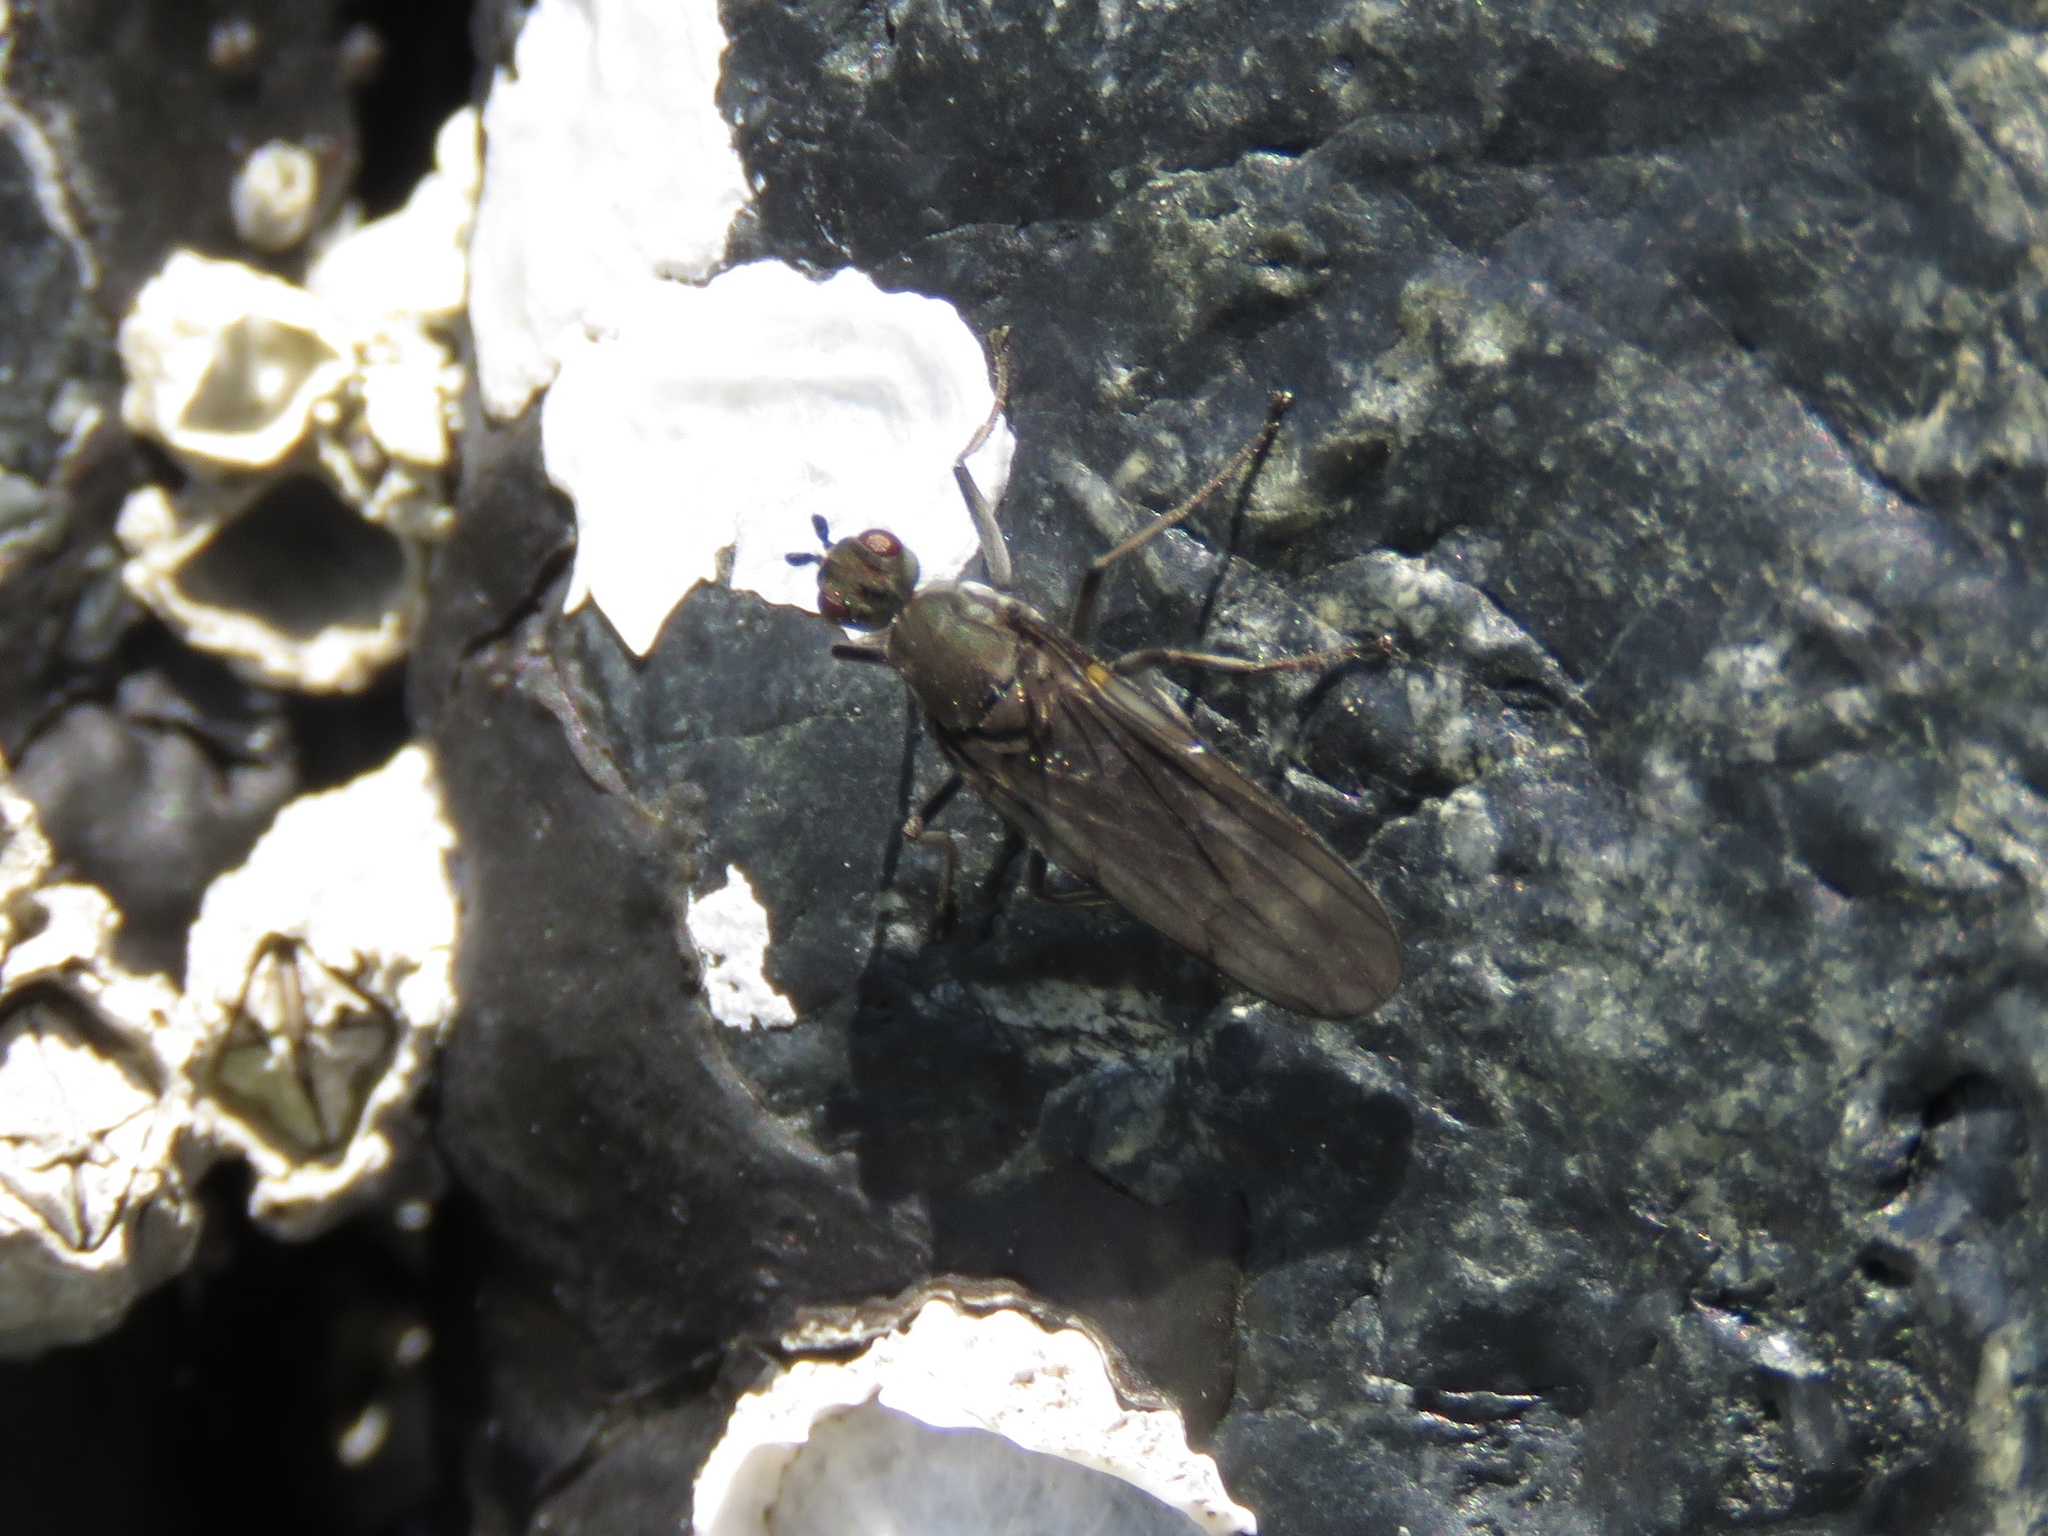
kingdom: Animalia
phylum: Arthropoda
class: Insecta
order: Diptera
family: Dryomyzidae
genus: Oedoparena
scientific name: Oedoparena glauca
